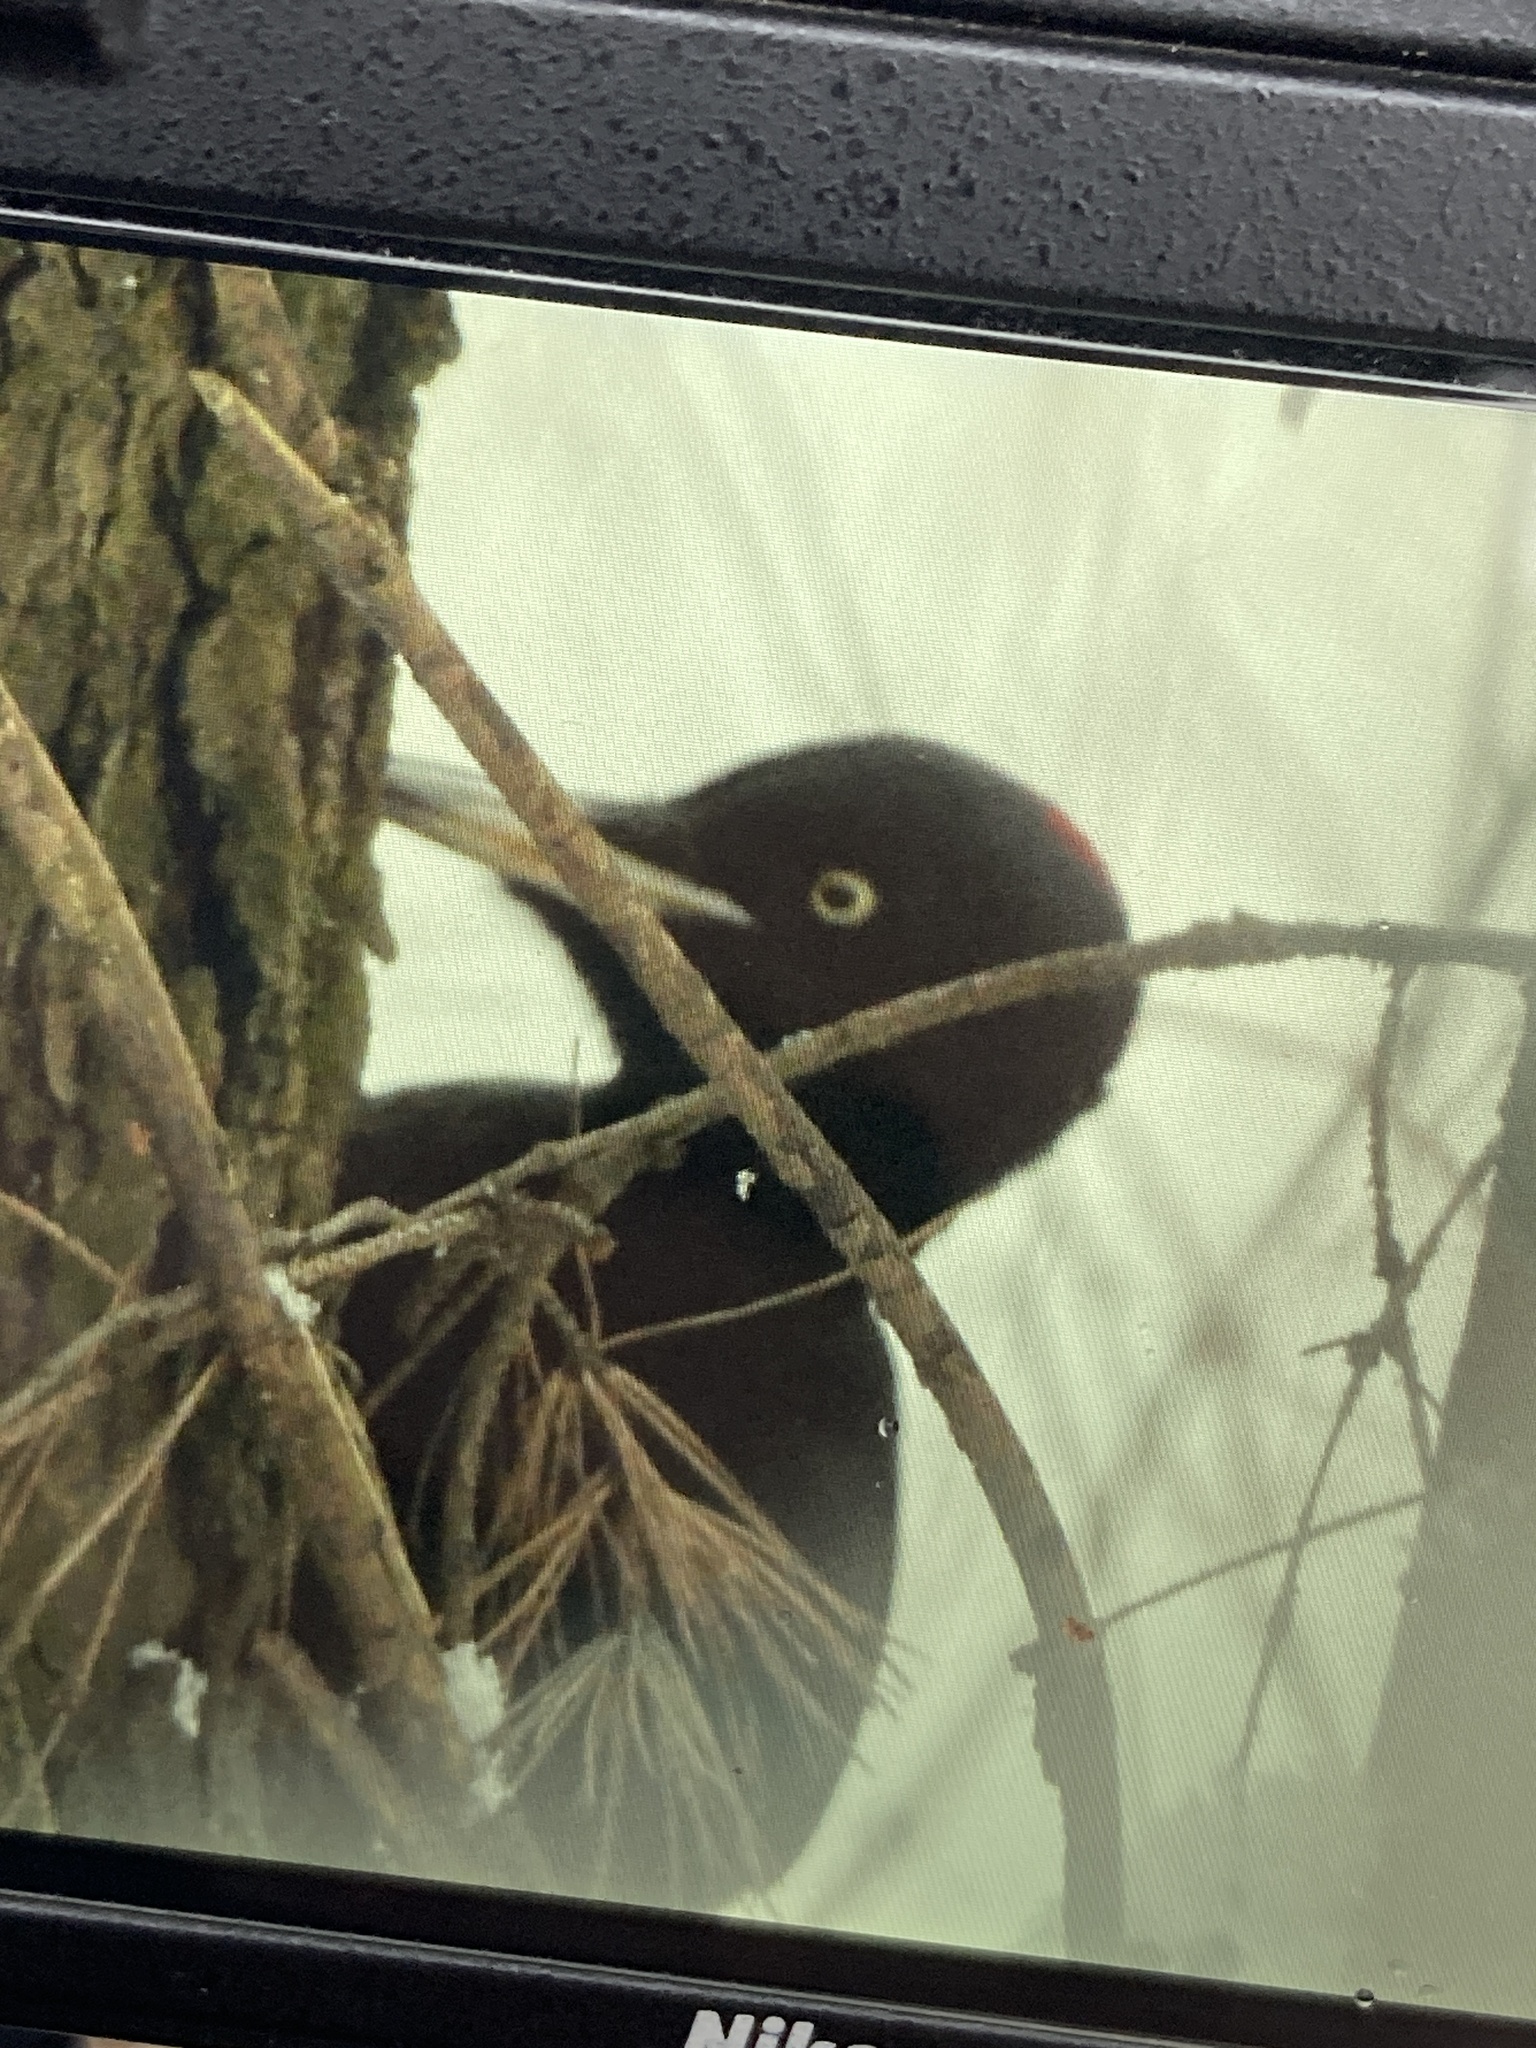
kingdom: Animalia
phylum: Chordata
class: Aves
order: Piciformes
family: Picidae
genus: Dryocopus
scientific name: Dryocopus martius
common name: Black woodpecker
